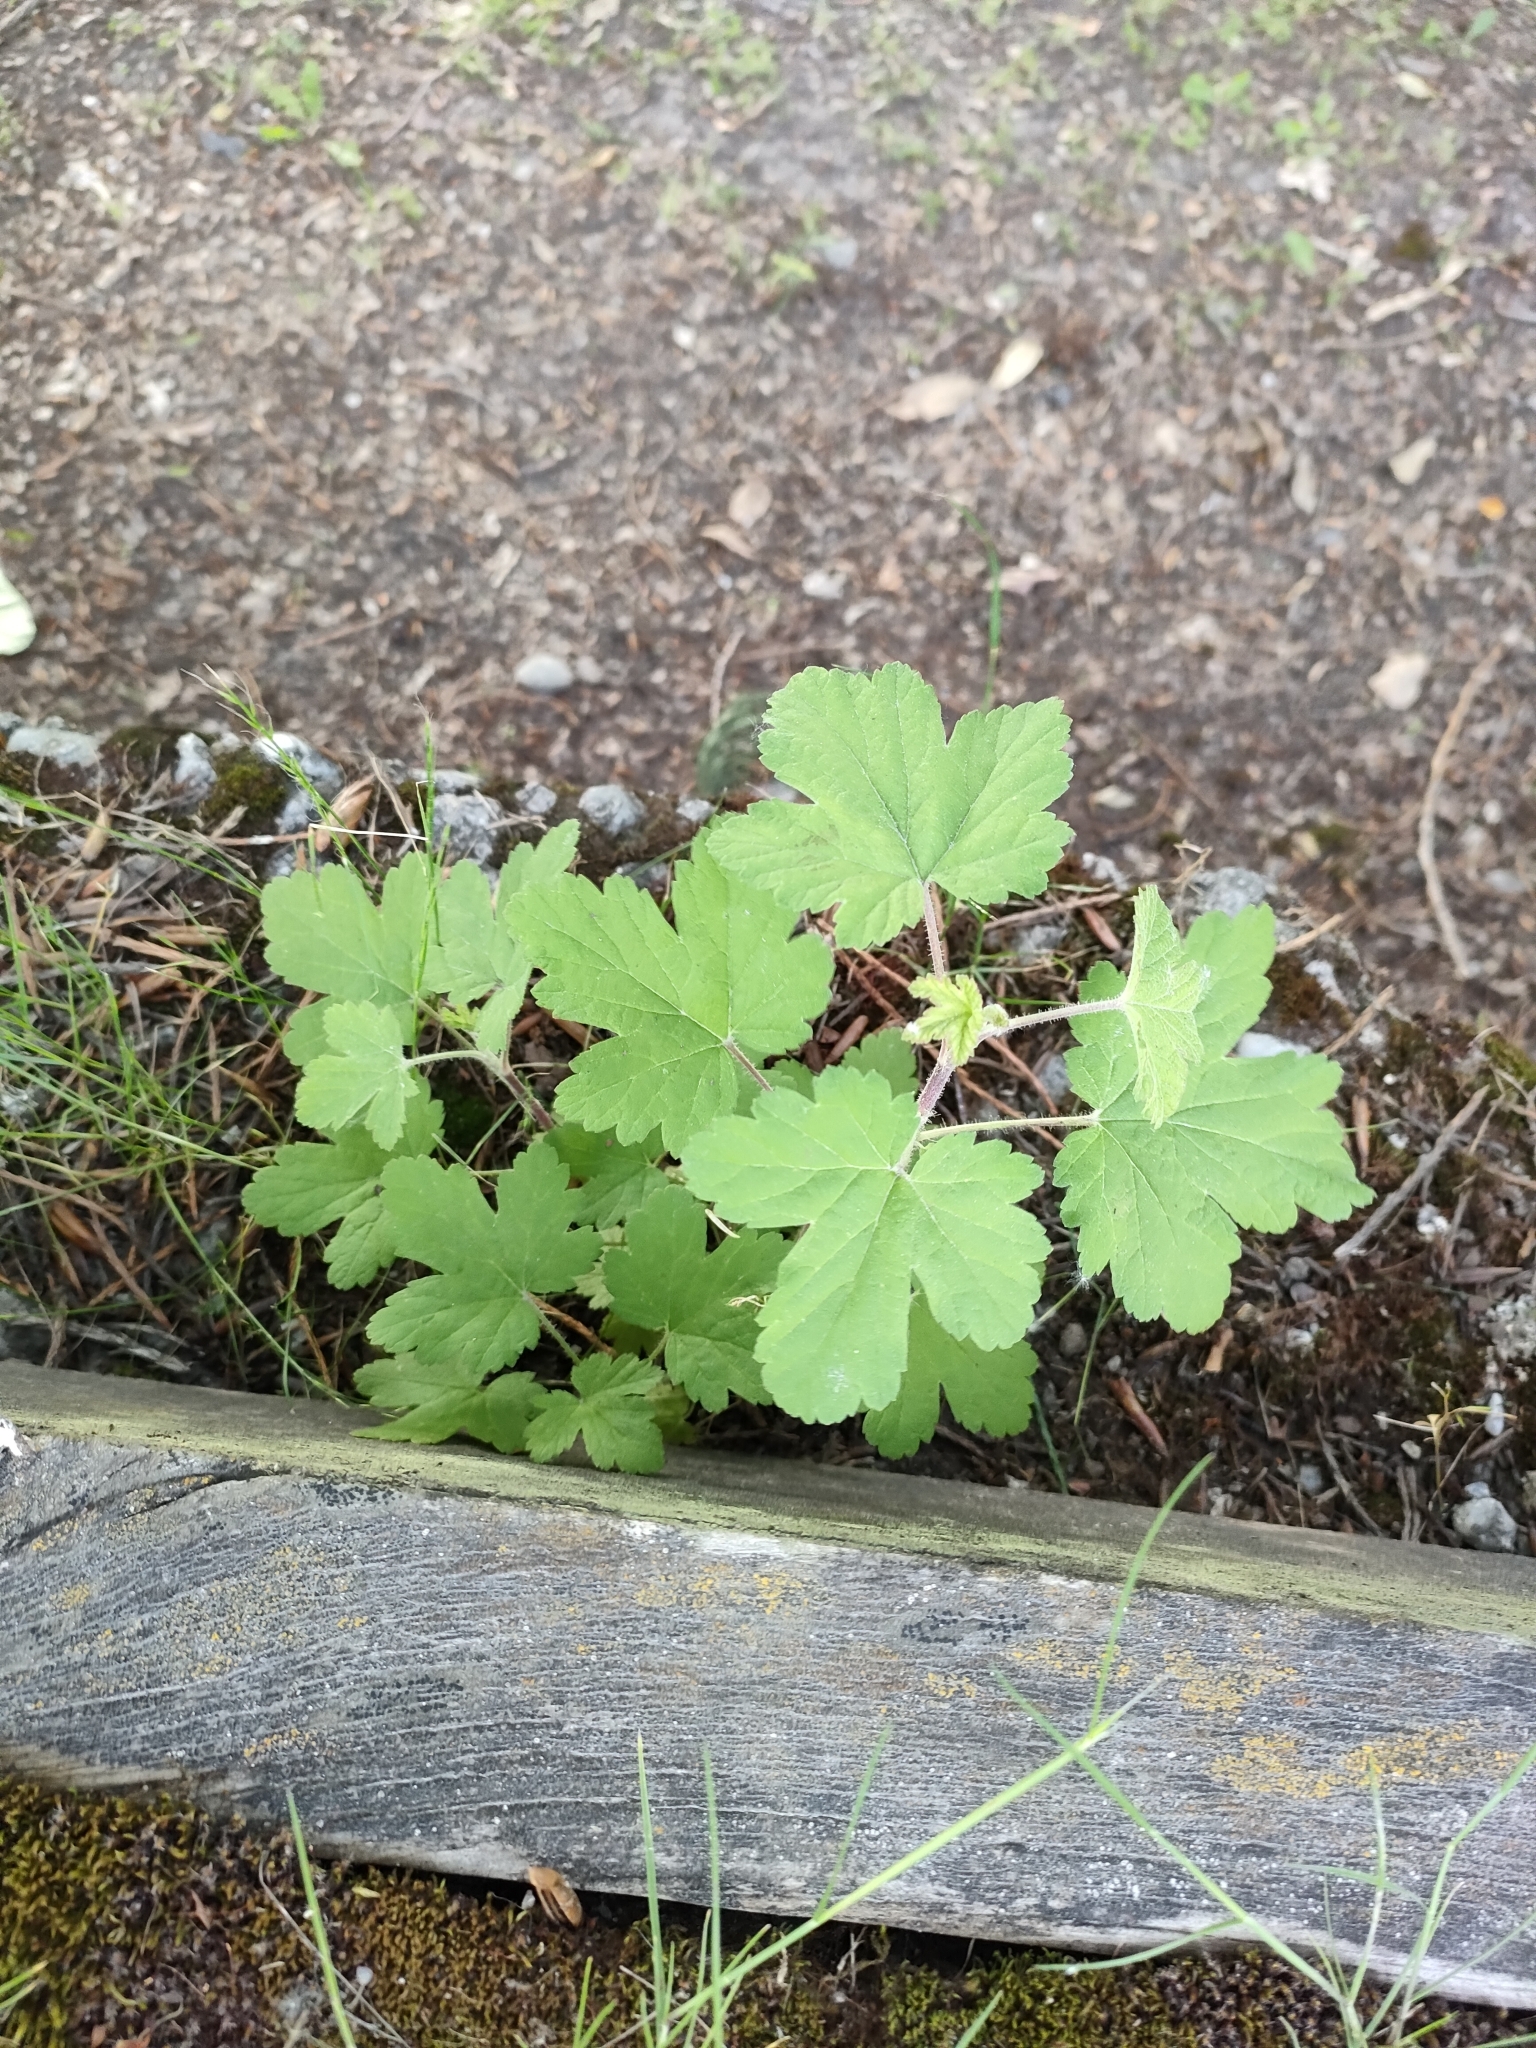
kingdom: Plantae
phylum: Tracheophyta
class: Magnoliopsida
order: Saxifragales
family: Grossulariaceae
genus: Ribes
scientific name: Ribes sanguineum
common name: Flowering currant
